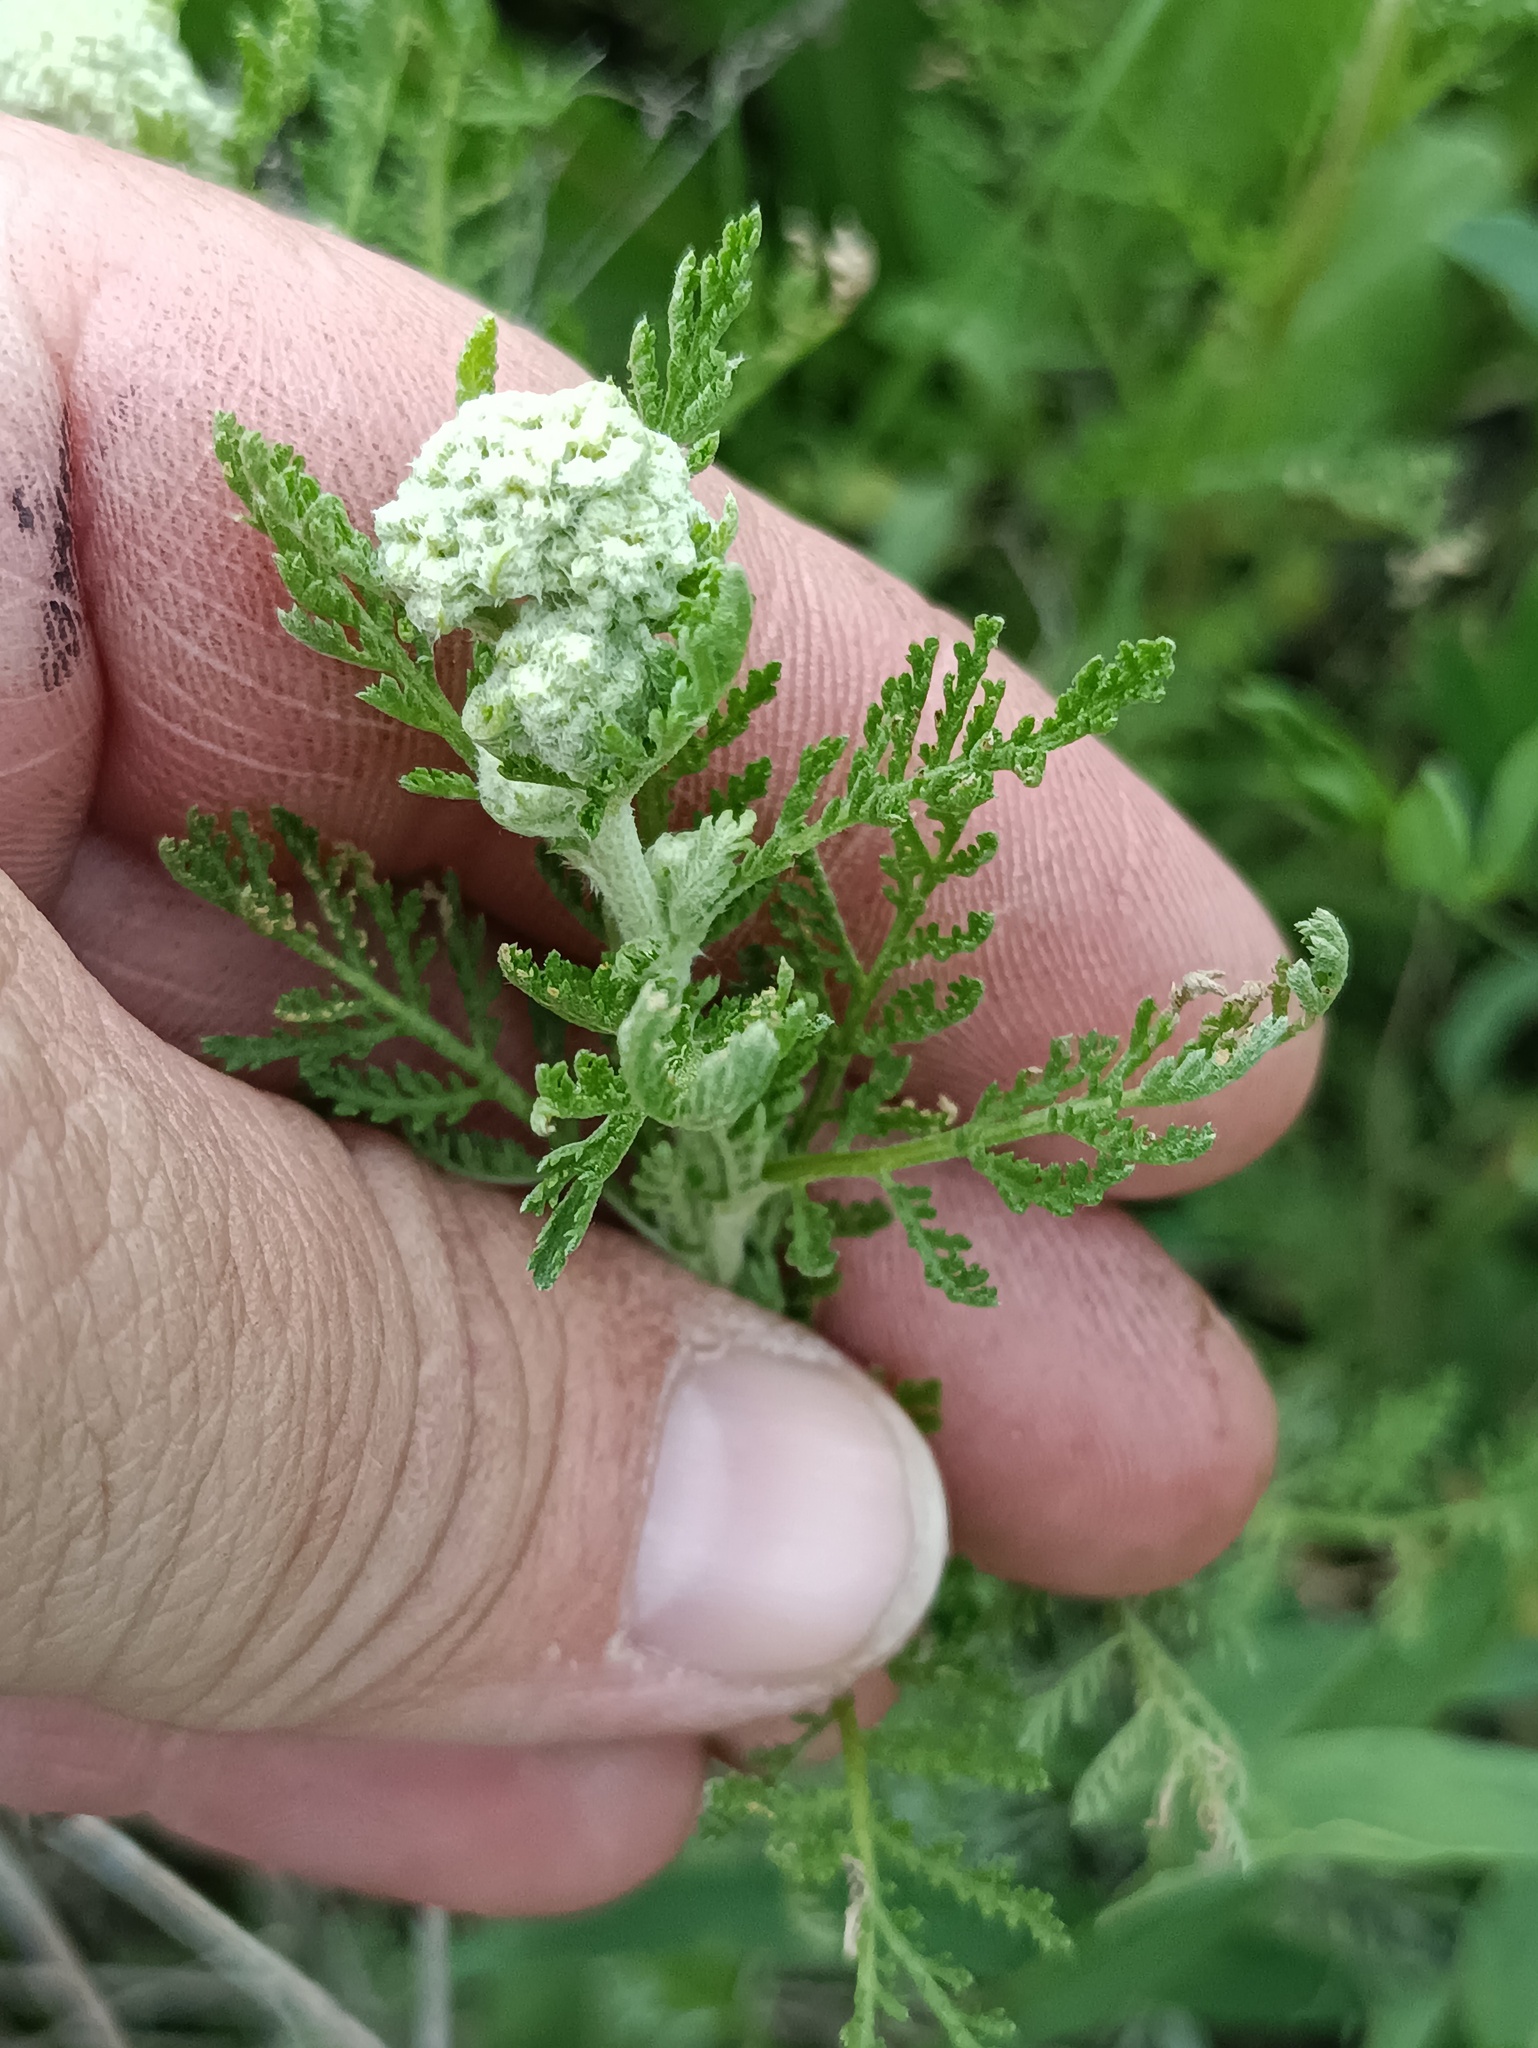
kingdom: Plantae
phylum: Tracheophyta
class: Magnoliopsida
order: Asterales
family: Asteraceae
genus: Achillea
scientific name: Achillea nobilis
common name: Noble yarrow
